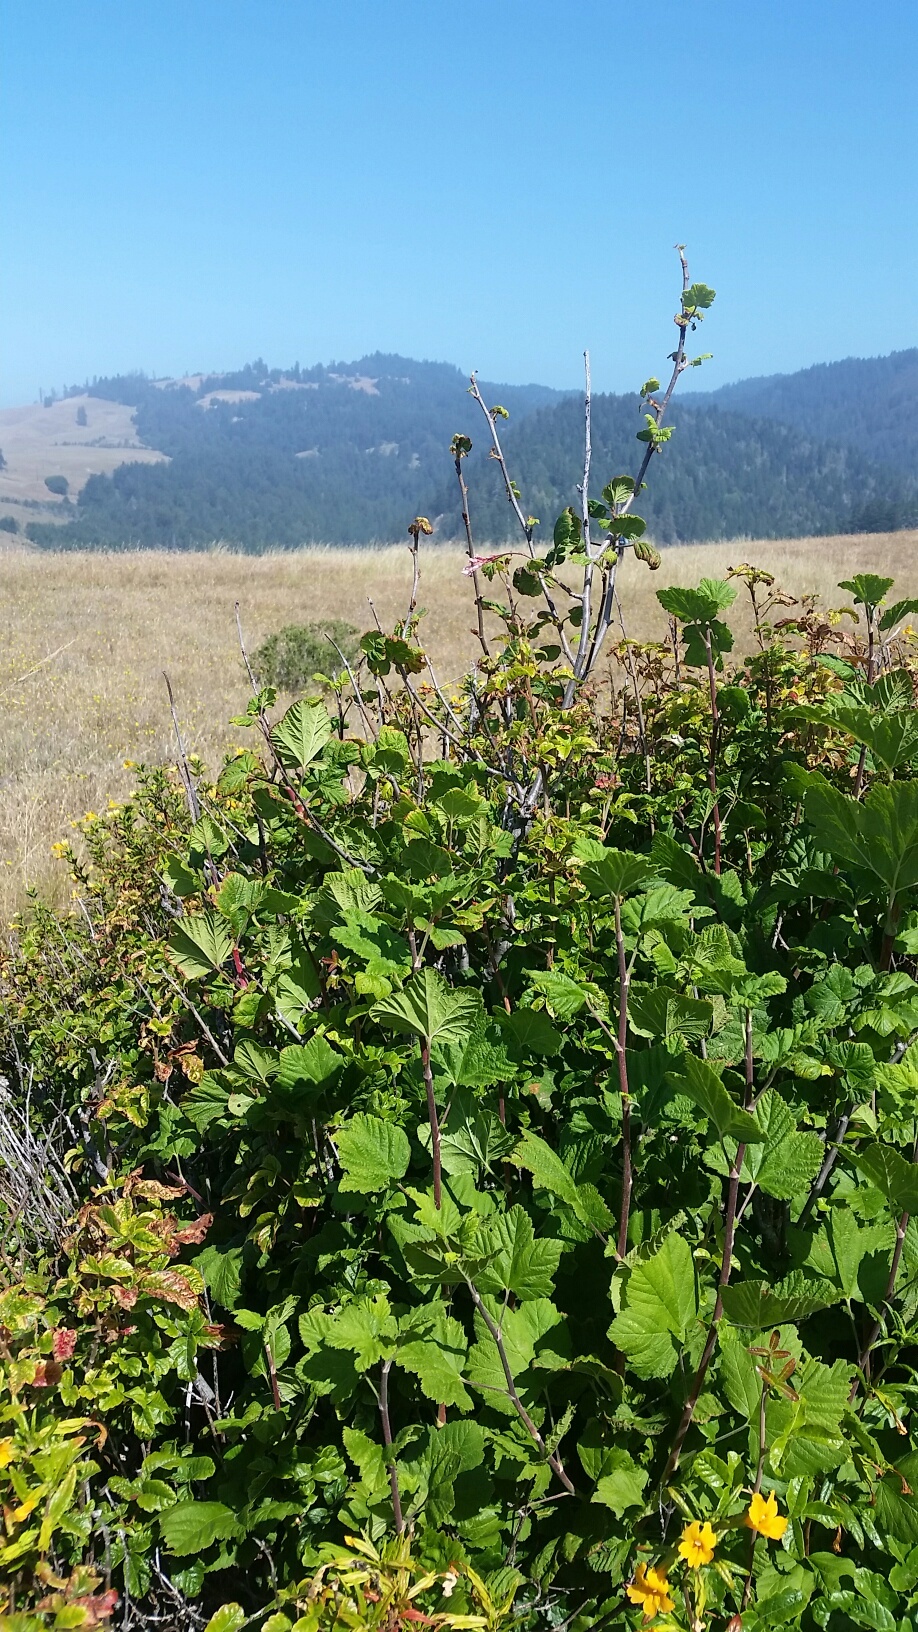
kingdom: Plantae
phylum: Tracheophyta
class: Magnoliopsida
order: Saxifragales
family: Grossulariaceae
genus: Ribes
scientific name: Ribes sanguineum
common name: Flowering currant
